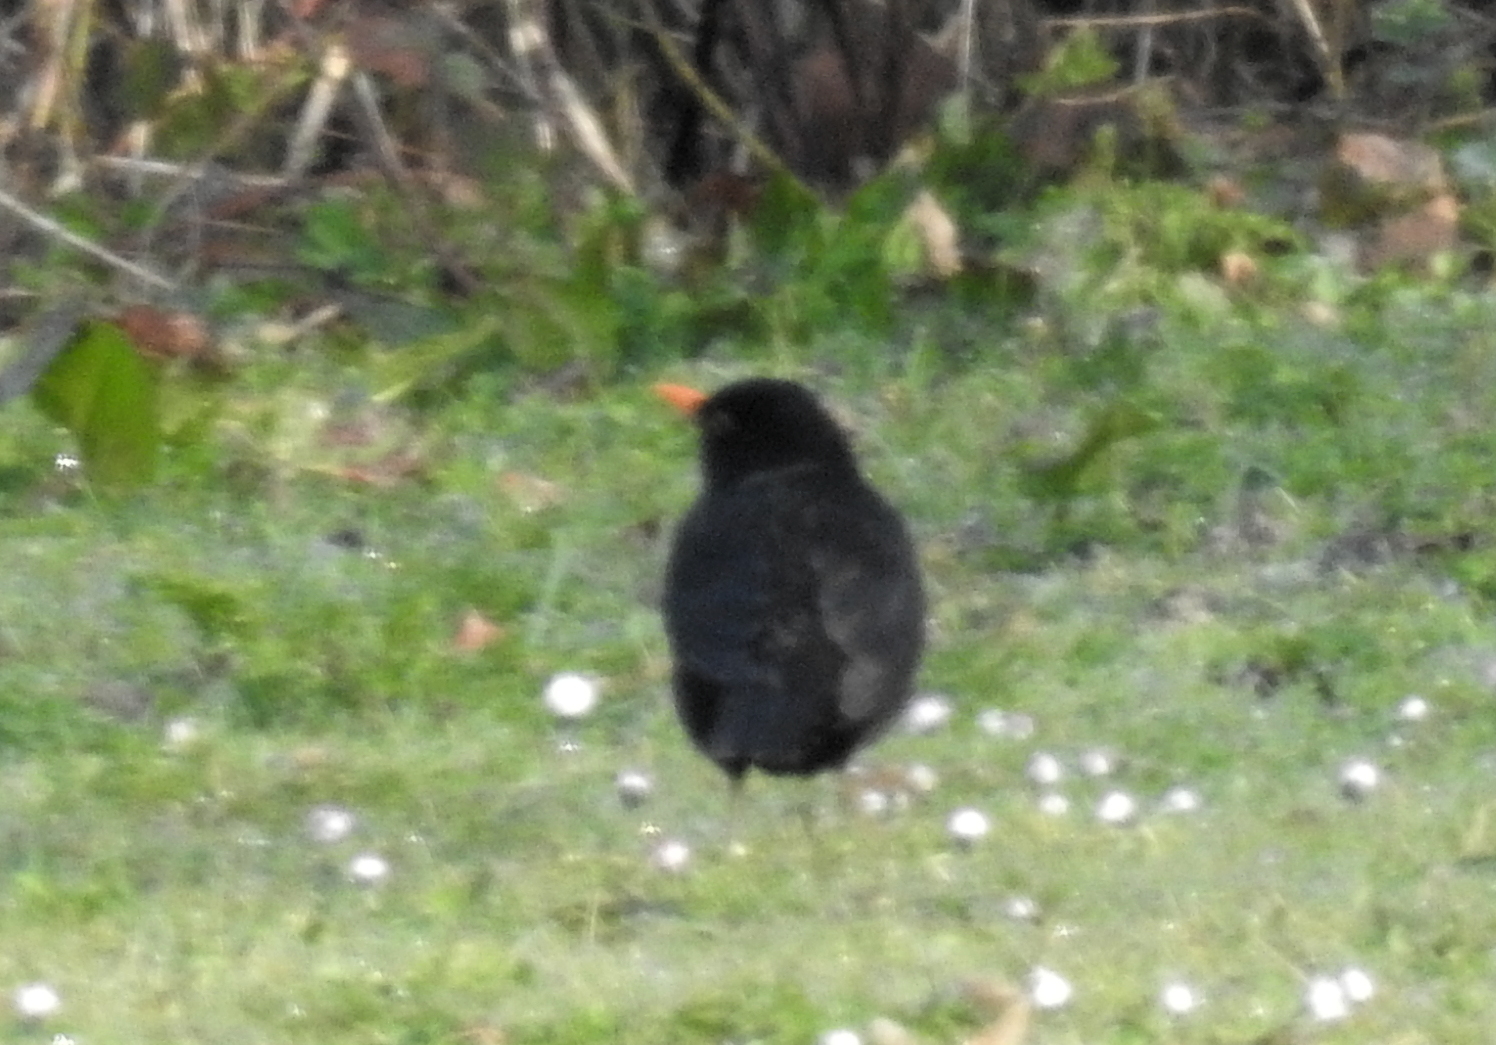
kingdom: Animalia
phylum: Chordata
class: Aves
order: Passeriformes
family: Turdidae
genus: Turdus
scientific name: Turdus merula
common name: Common blackbird
